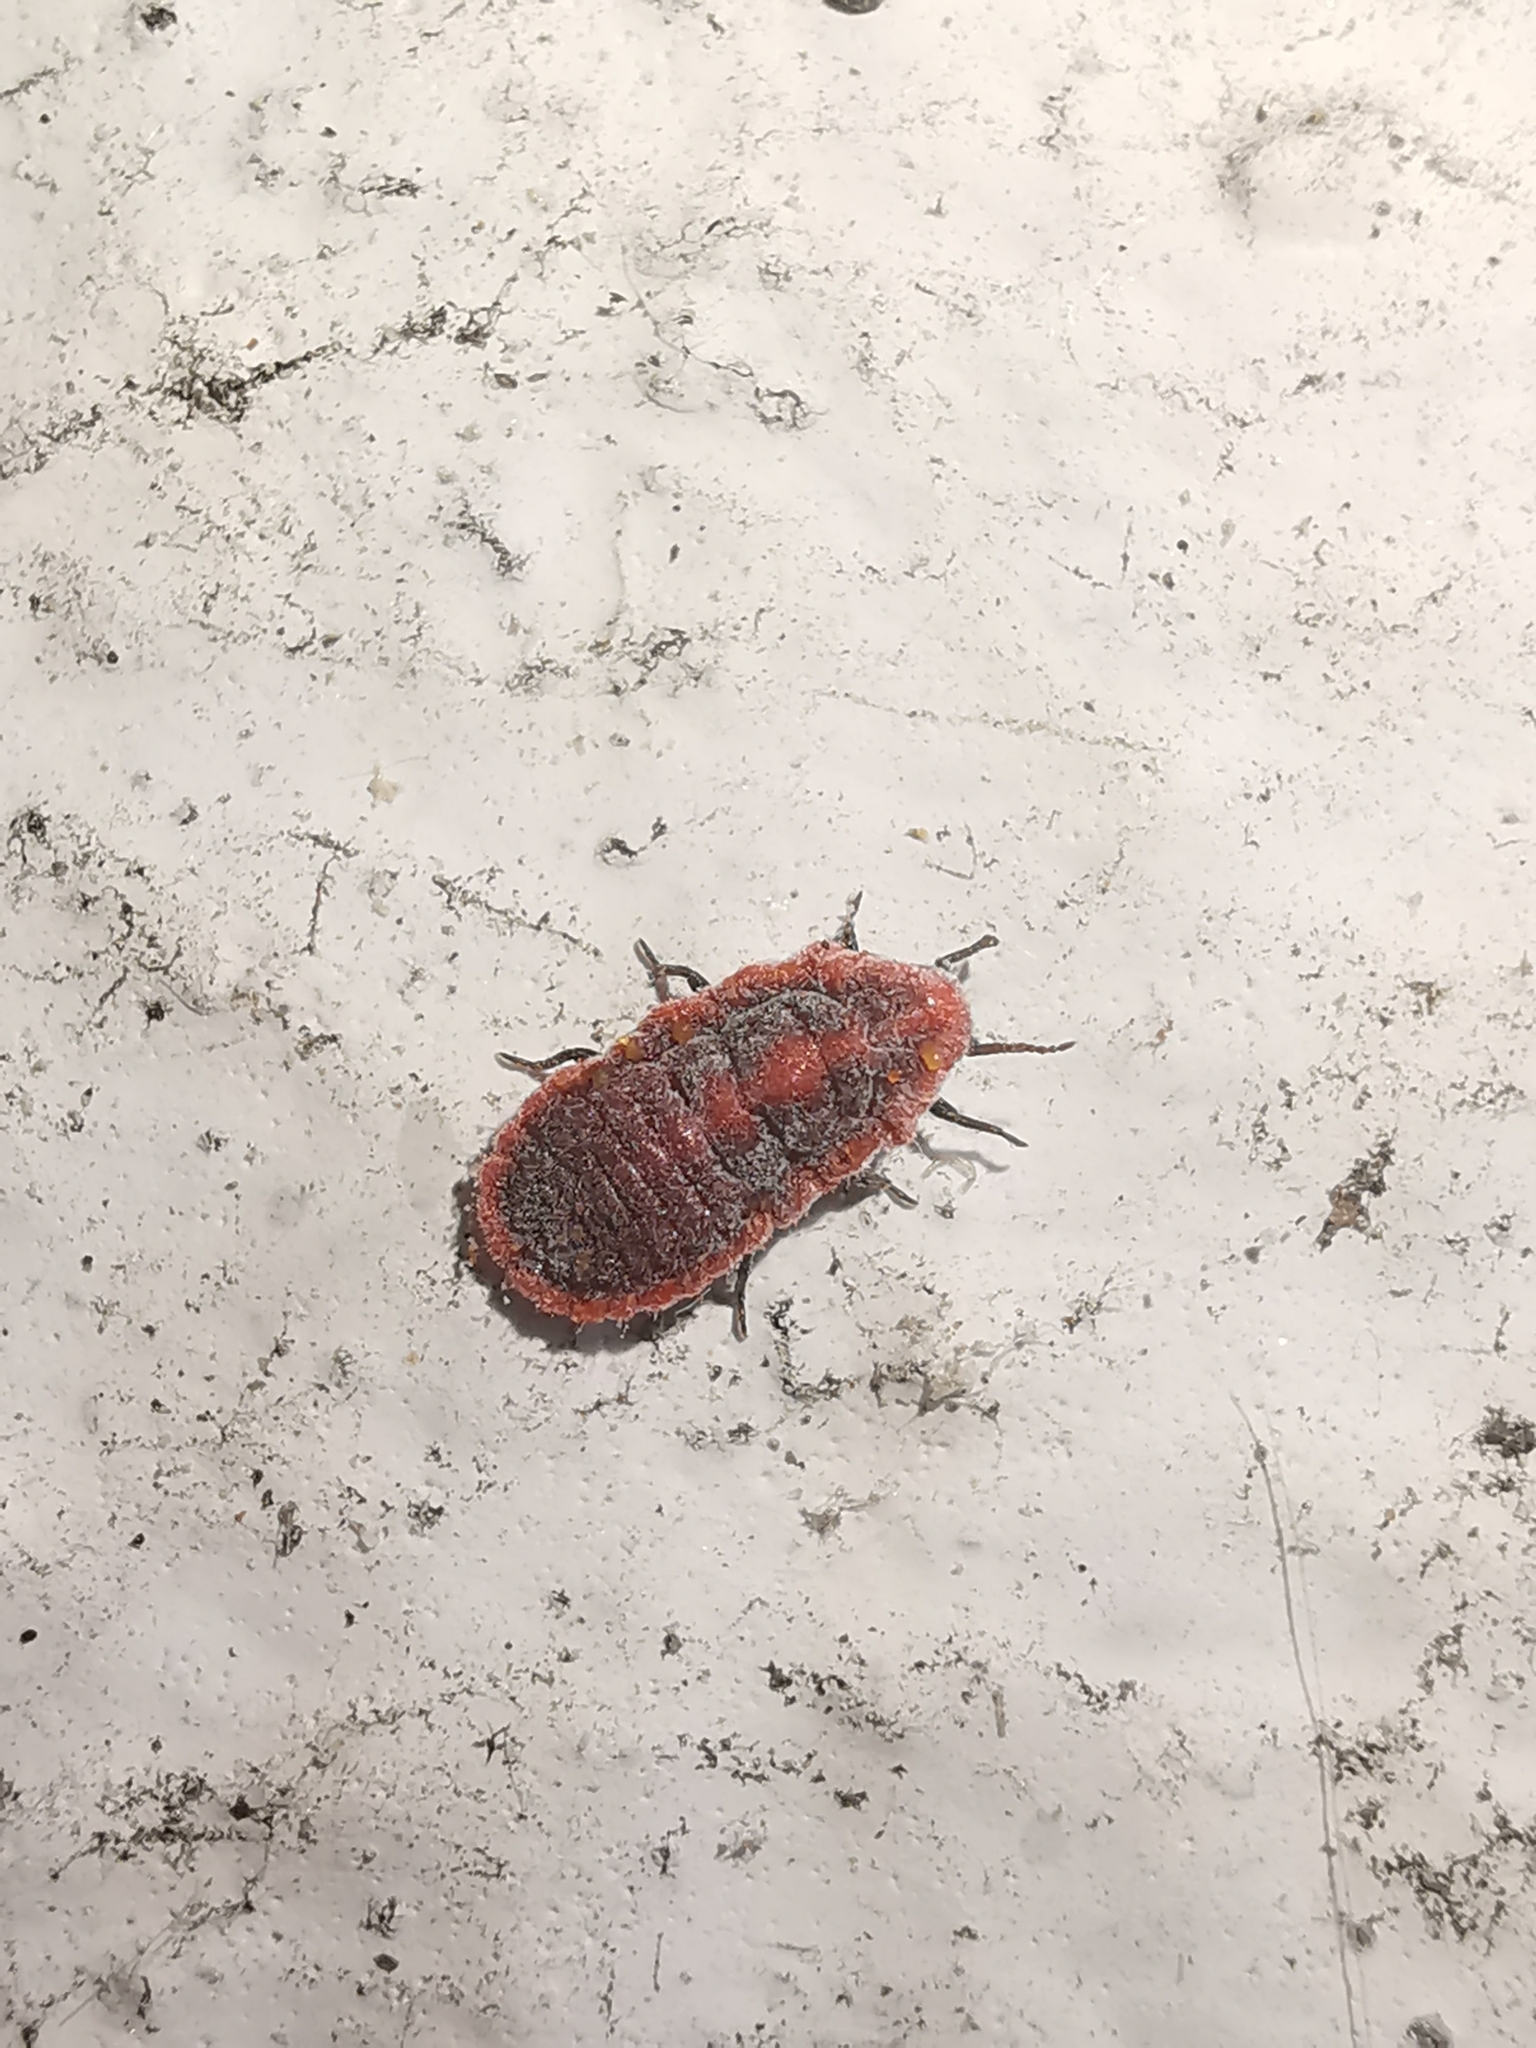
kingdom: Animalia
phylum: Arthropoda
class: Insecta
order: Hemiptera
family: Margarodidae
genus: Icerya
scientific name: Icerya purchasi
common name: Cottony cushion scale
